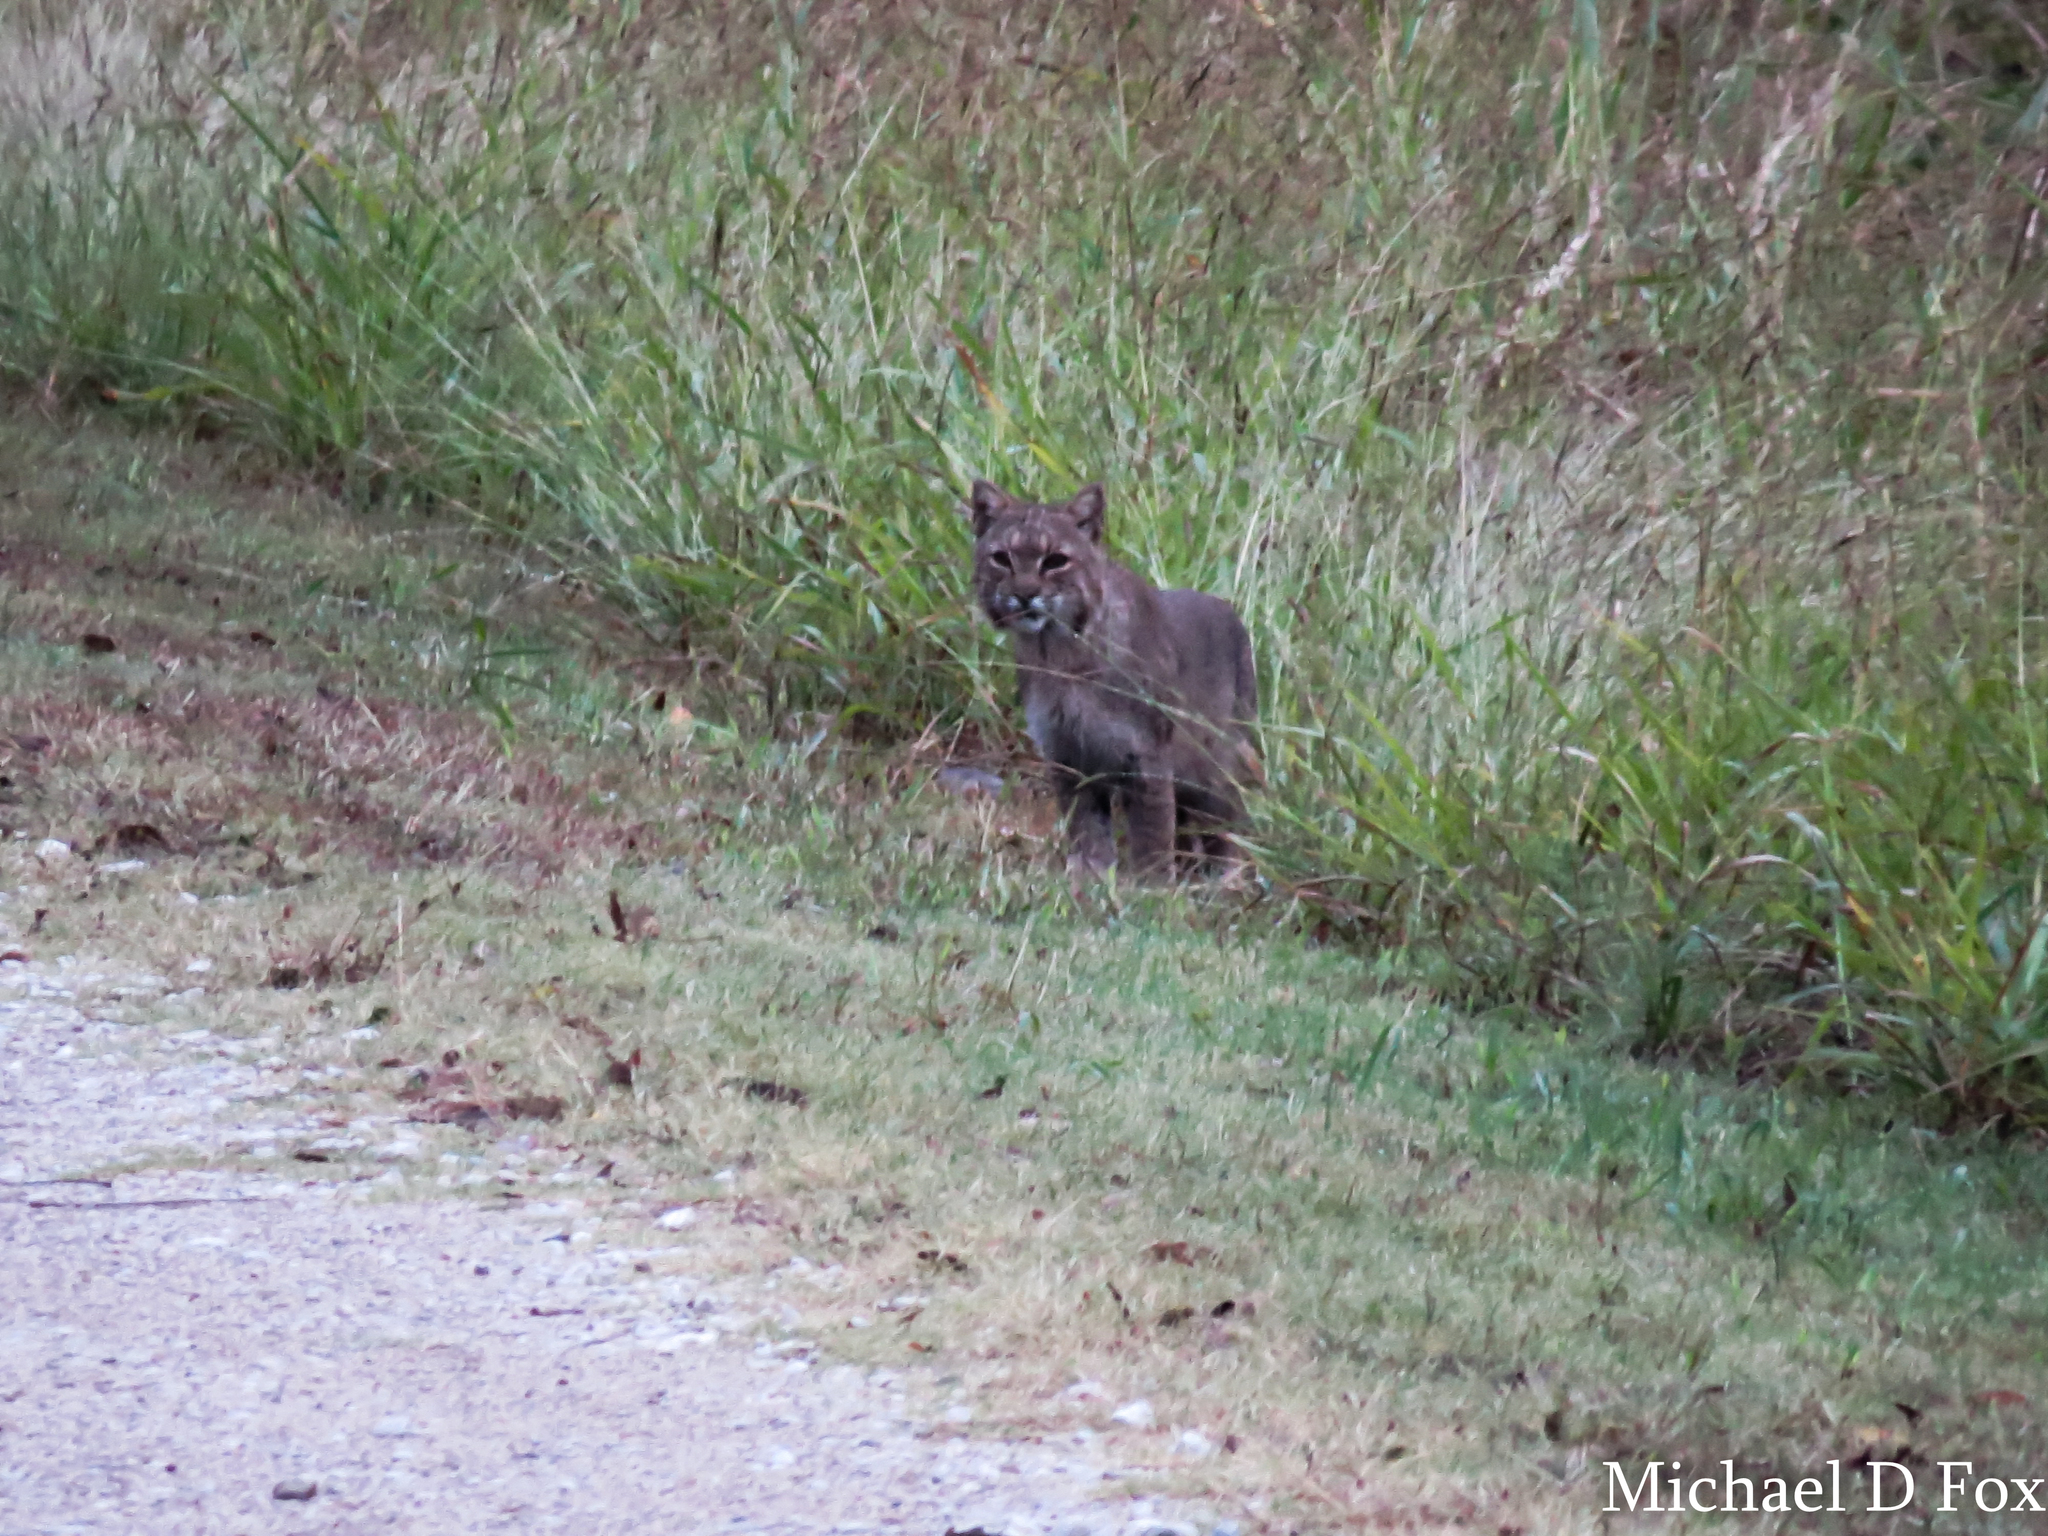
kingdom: Animalia
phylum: Chordata
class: Mammalia
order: Carnivora
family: Felidae
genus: Lynx
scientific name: Lynx rufus
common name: Bobcat
